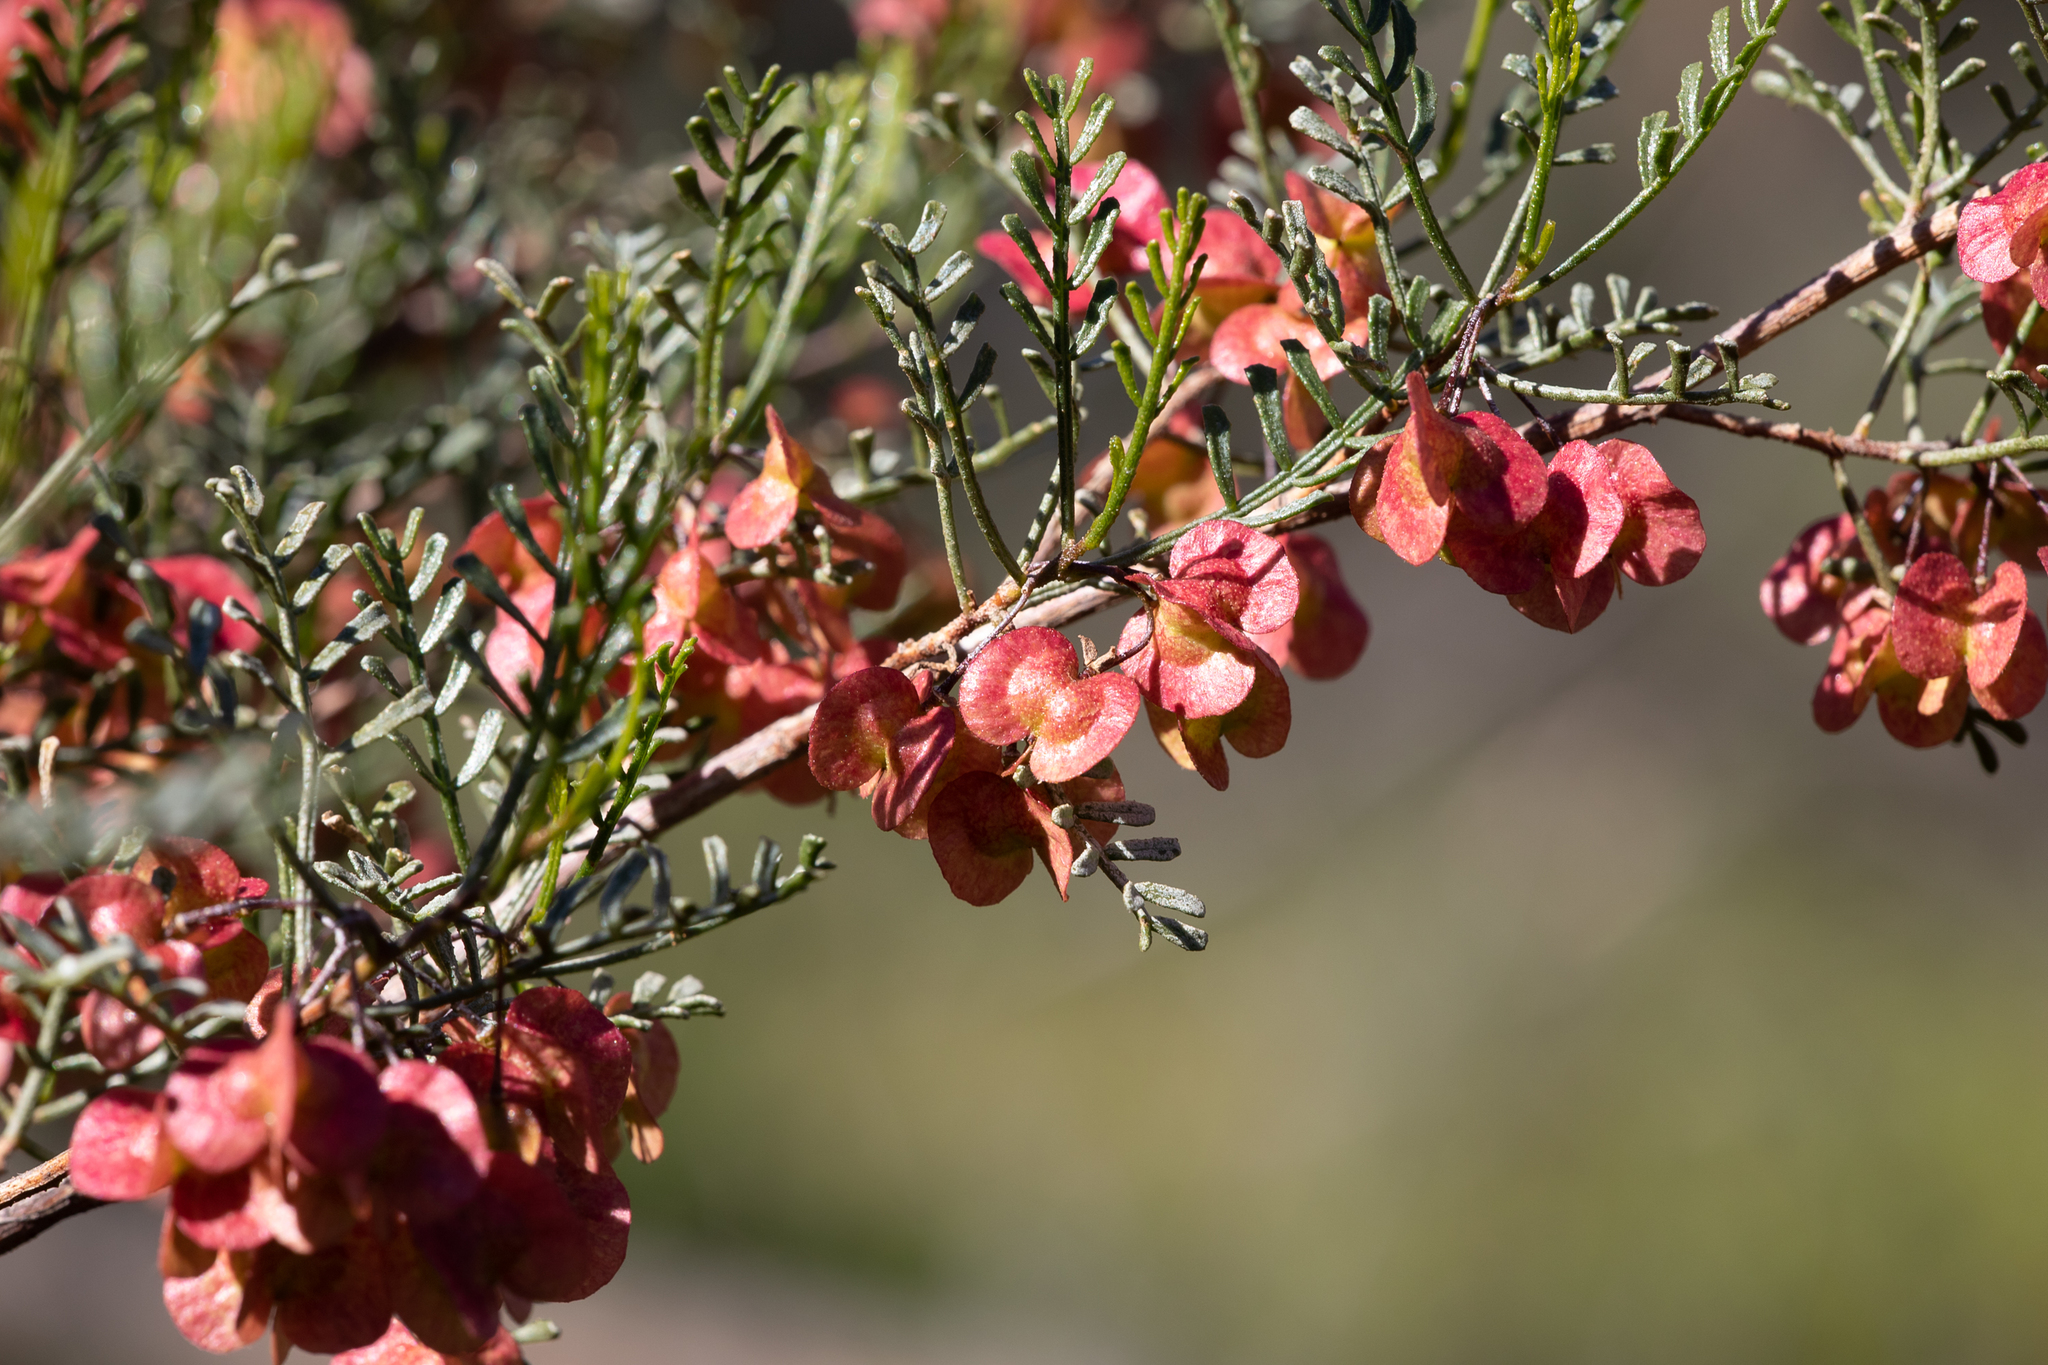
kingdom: Plantae
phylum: Tracheophyta
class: Magnoliopsida
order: Sapindales
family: Sapindaceae
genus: Dodonaea
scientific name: Dodonaea sinuolata
